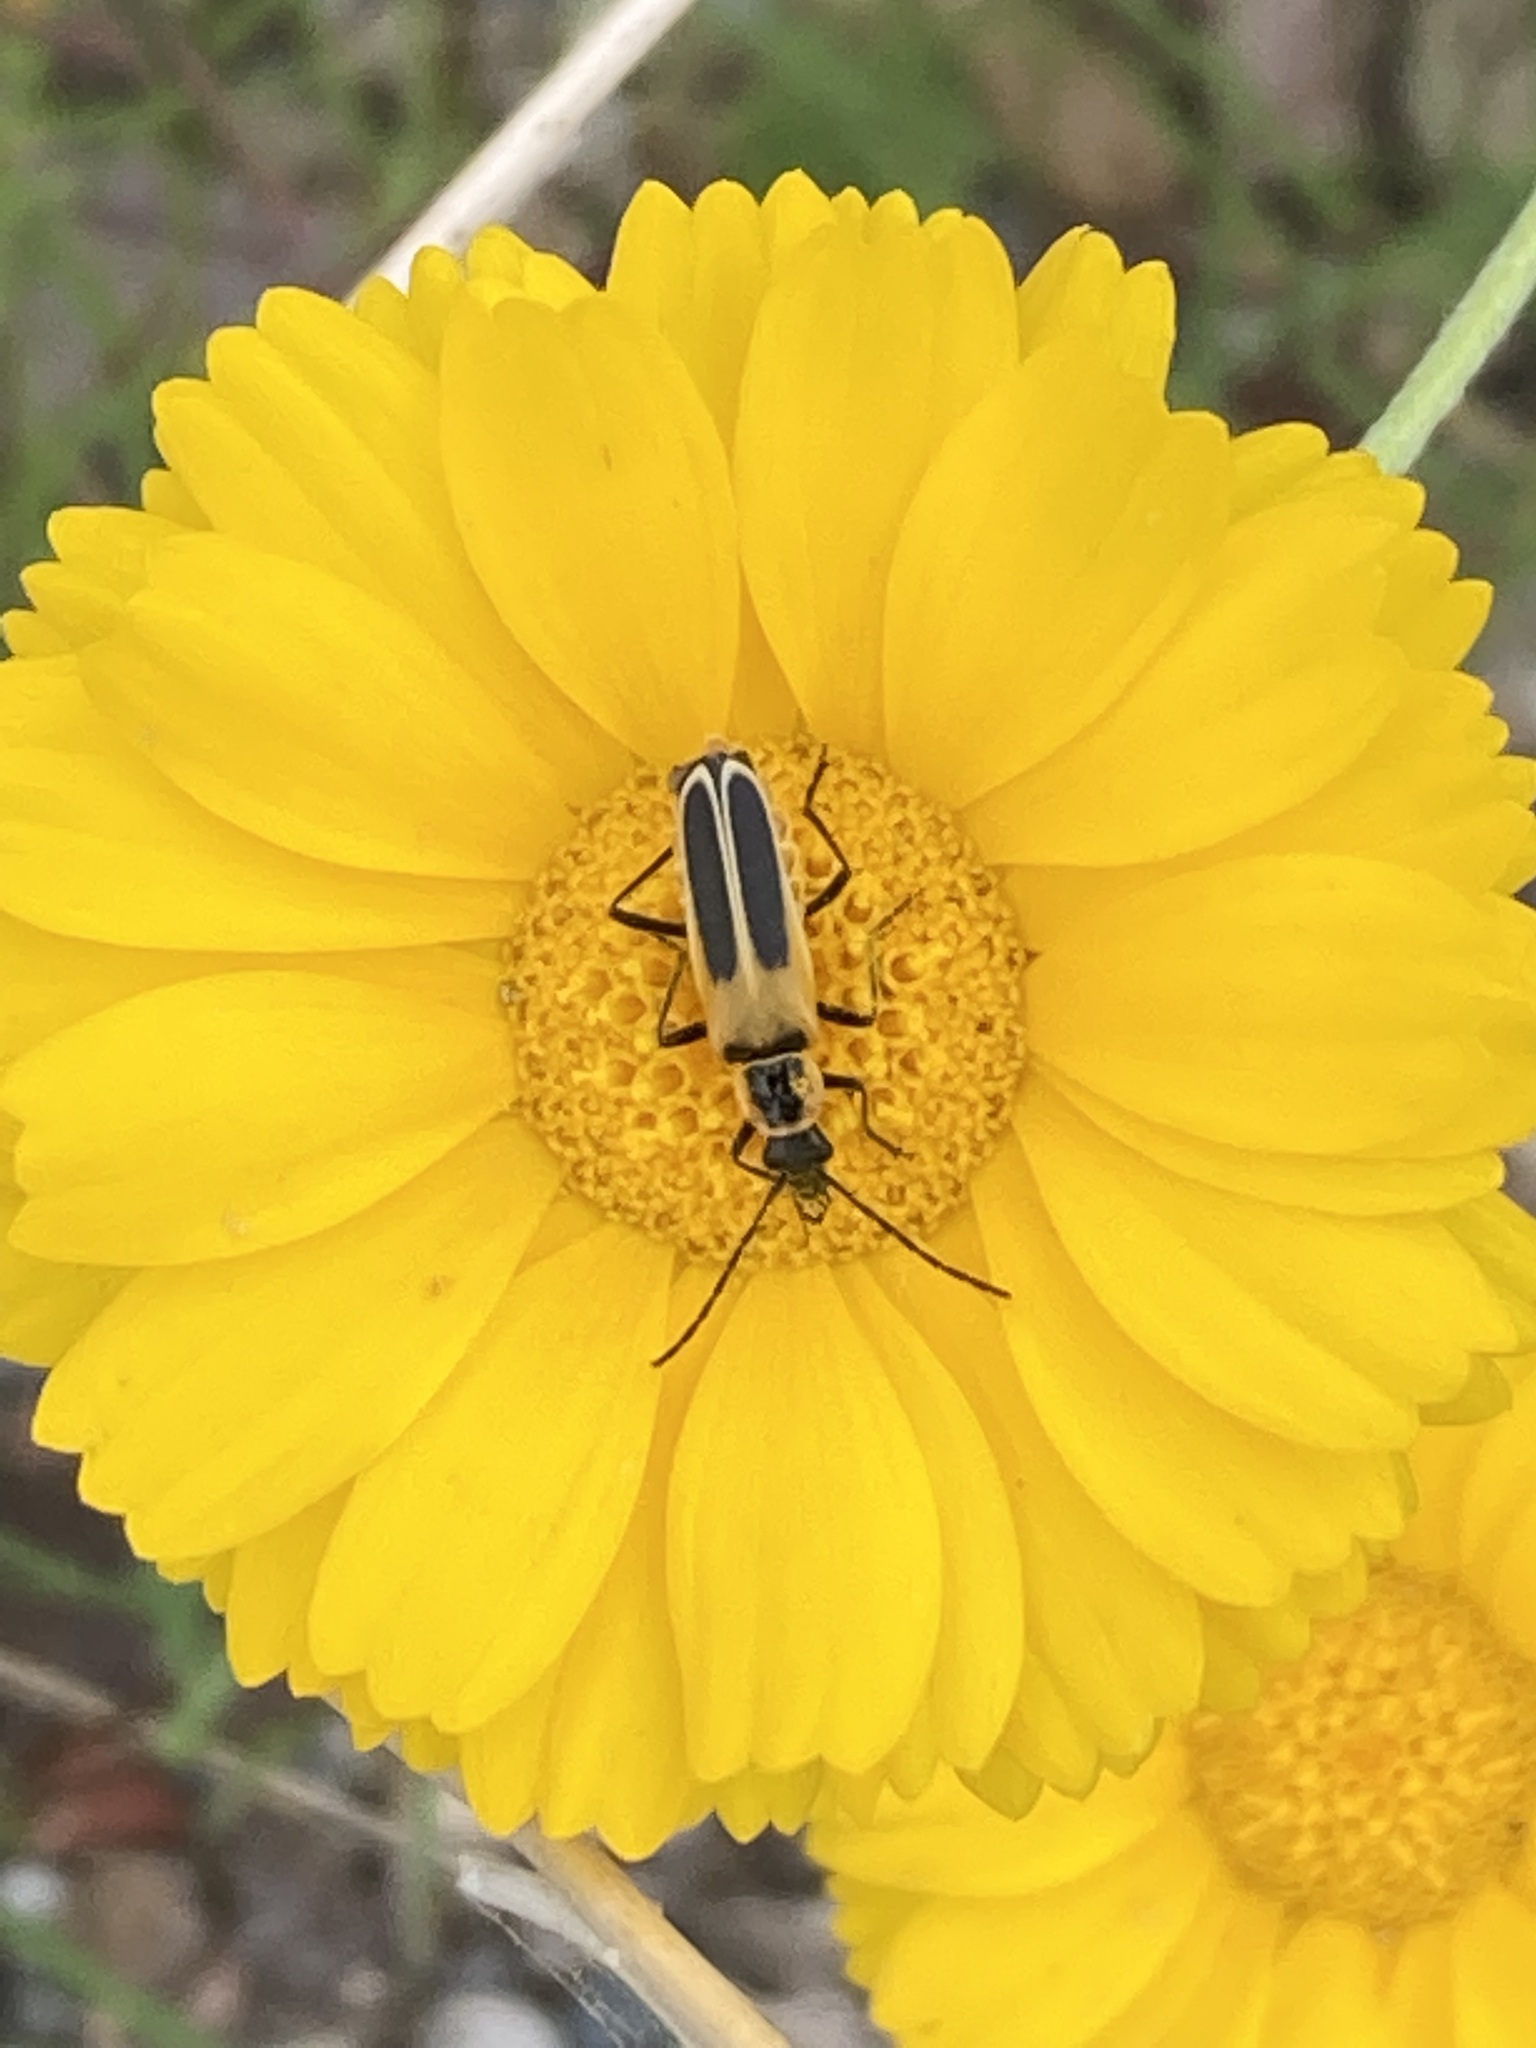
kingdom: Animalia
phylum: Arthropoda
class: Insecta
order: Coleoptera
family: Cantharidae
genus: Chauliognathus
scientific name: Chauliognathus lewisi
